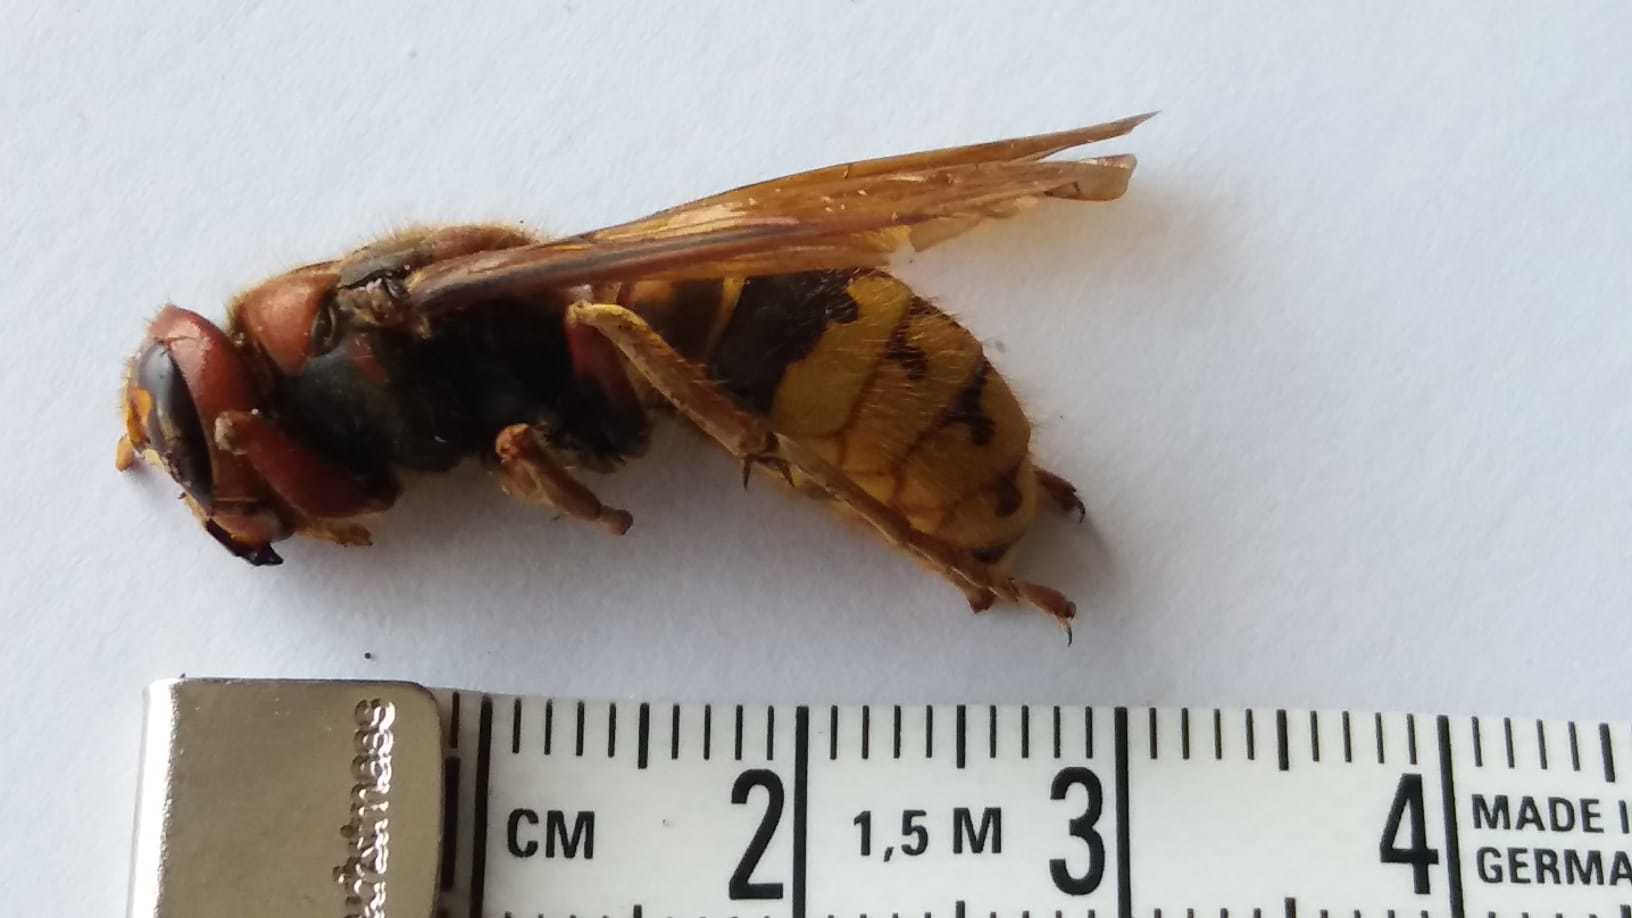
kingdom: Animalia
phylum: Arthropoda
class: Insecta
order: Hymenoptera
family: Vespidae
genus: Vespa
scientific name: Vespa crabro
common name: Hornet
